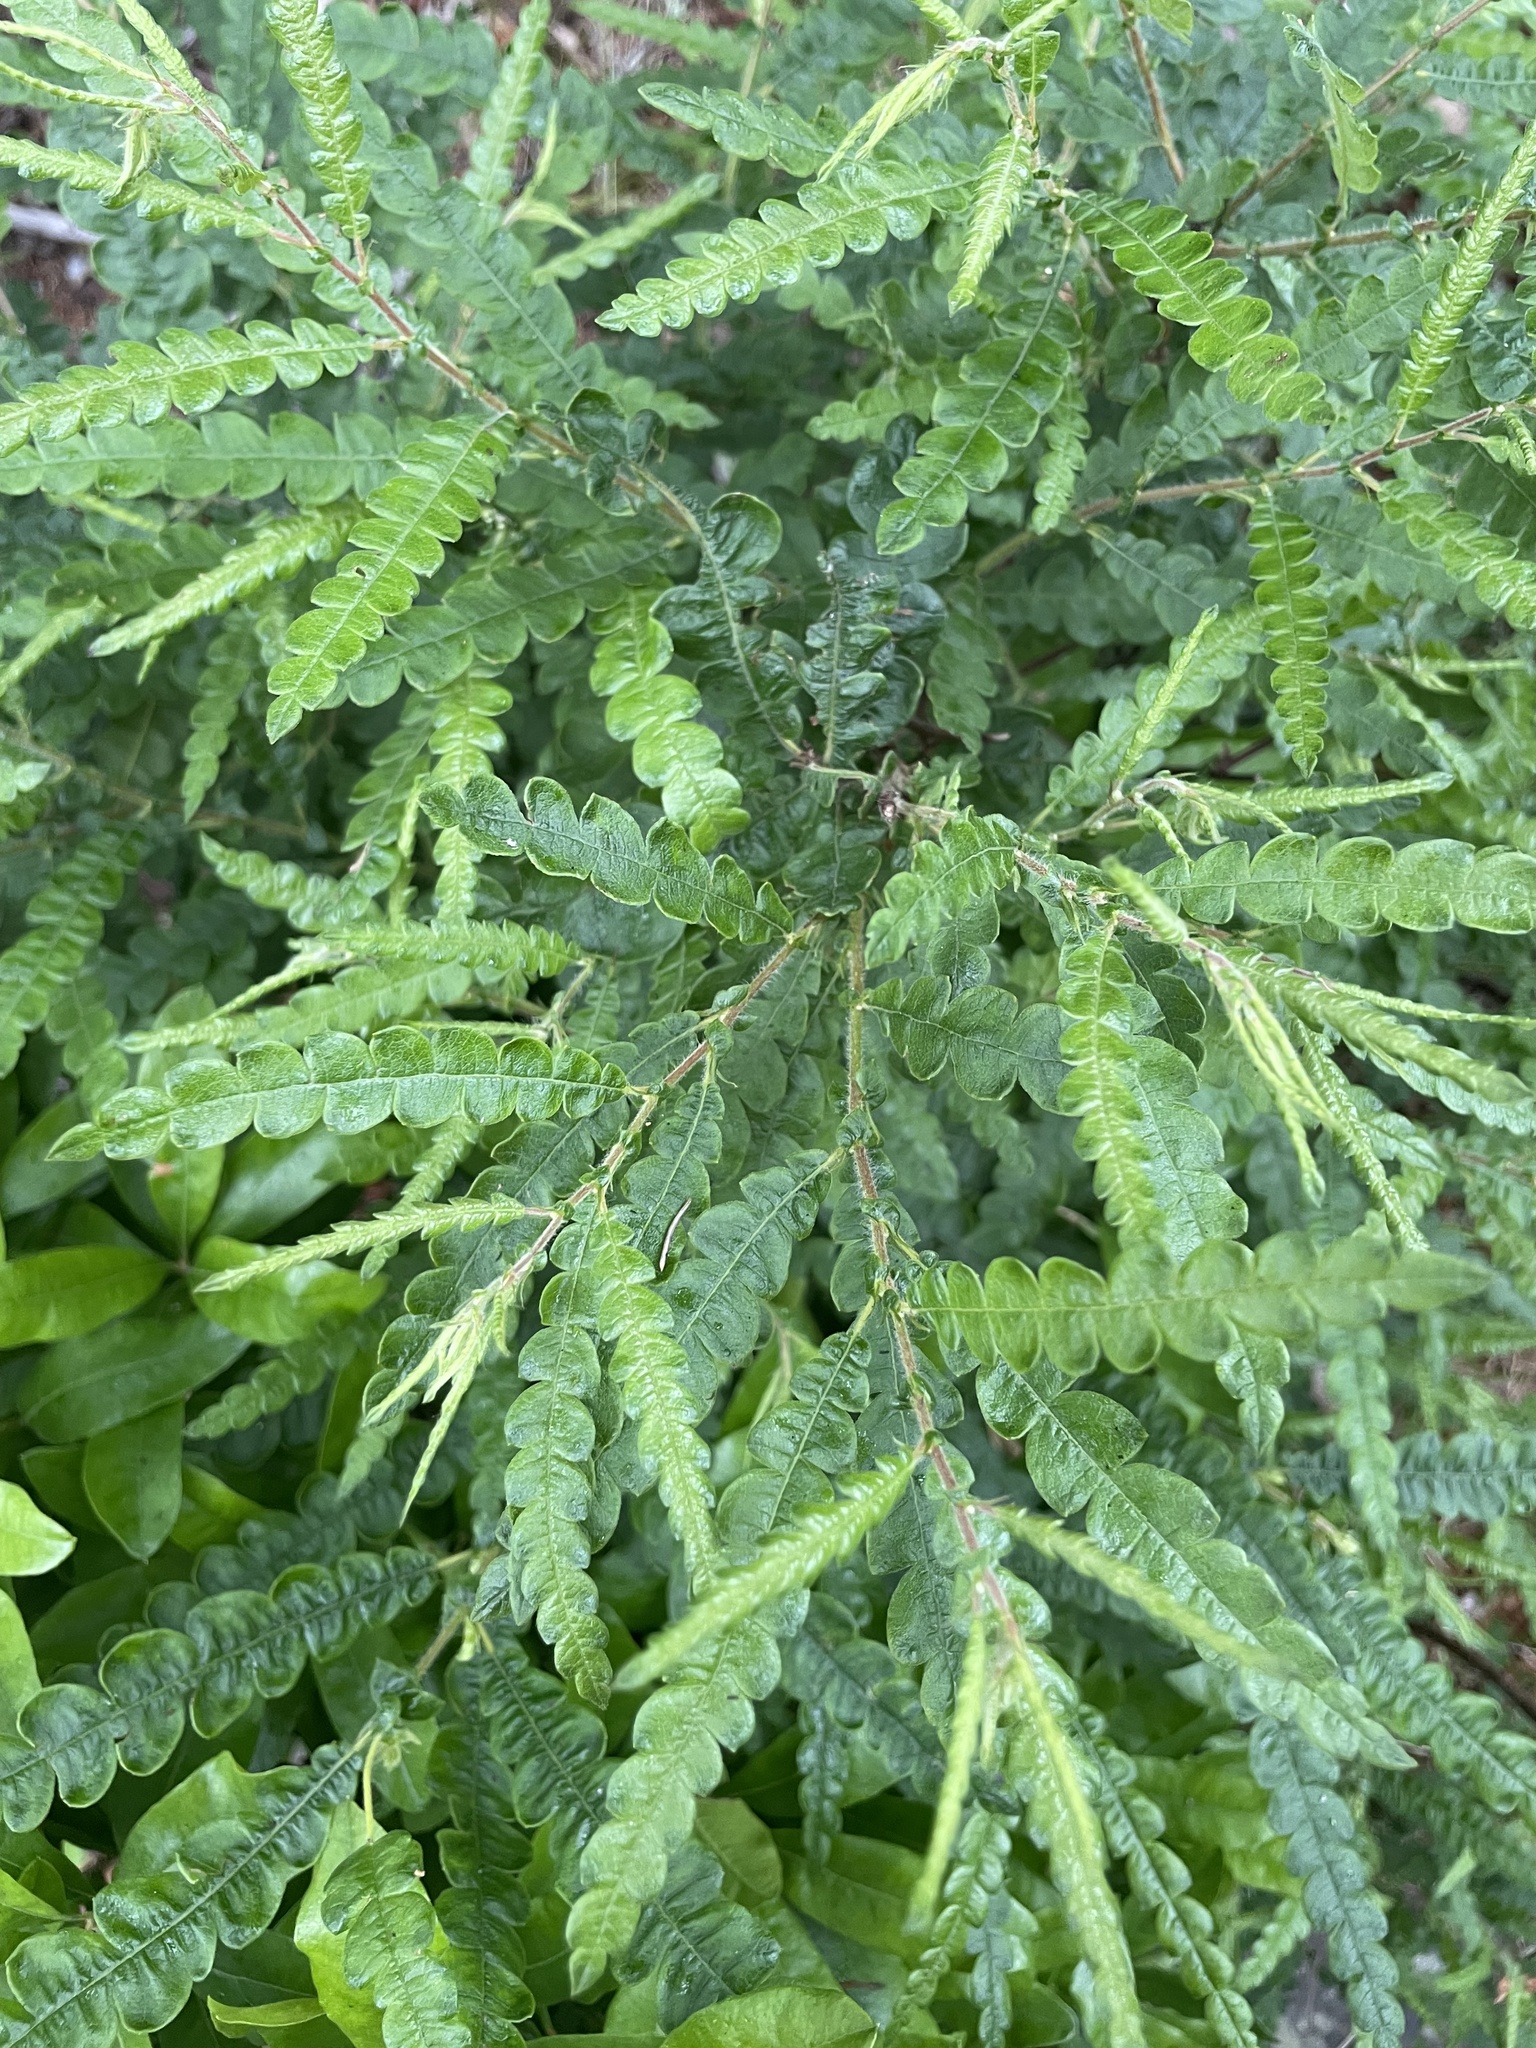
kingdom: Plantae
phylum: Tracheophyta
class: Magnoliopsida
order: Fagales
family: Myricaceae
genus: Comptonia
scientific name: Comptonia peregrina
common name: Sweet-fern
